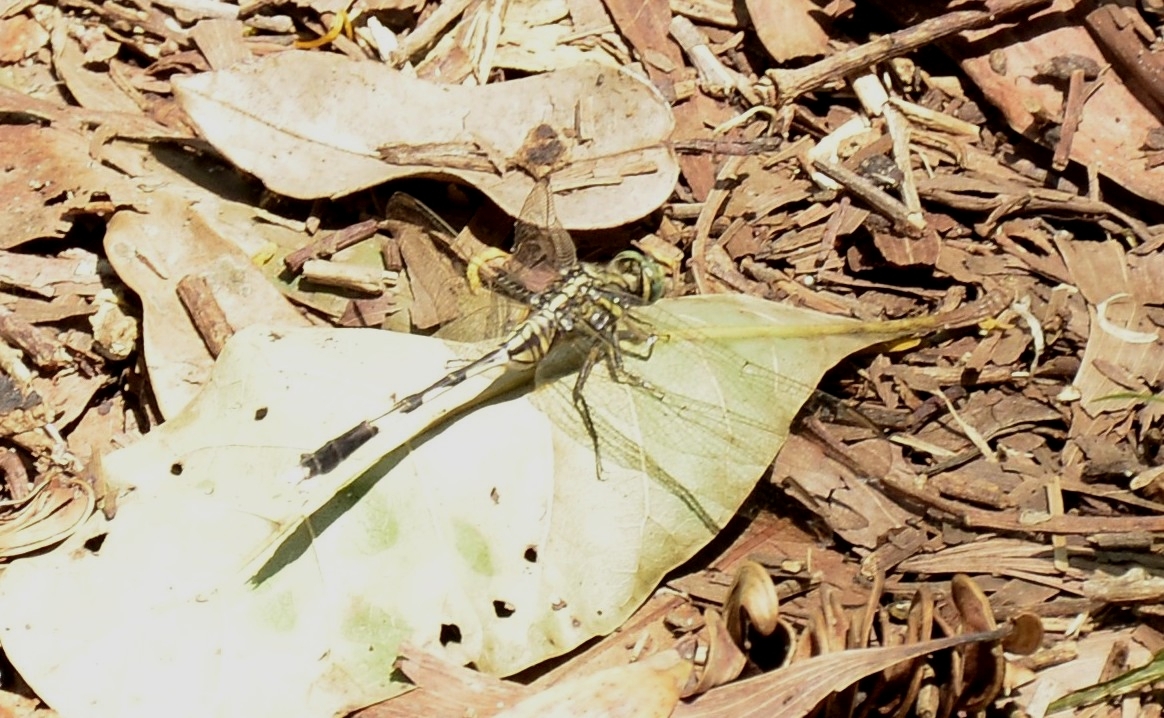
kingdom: Animalia
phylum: Arthropoda
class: Insecta
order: Odonata
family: Libellulidae
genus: Orthetrum
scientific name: Orthetrum sabina
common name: Slender skimmer
